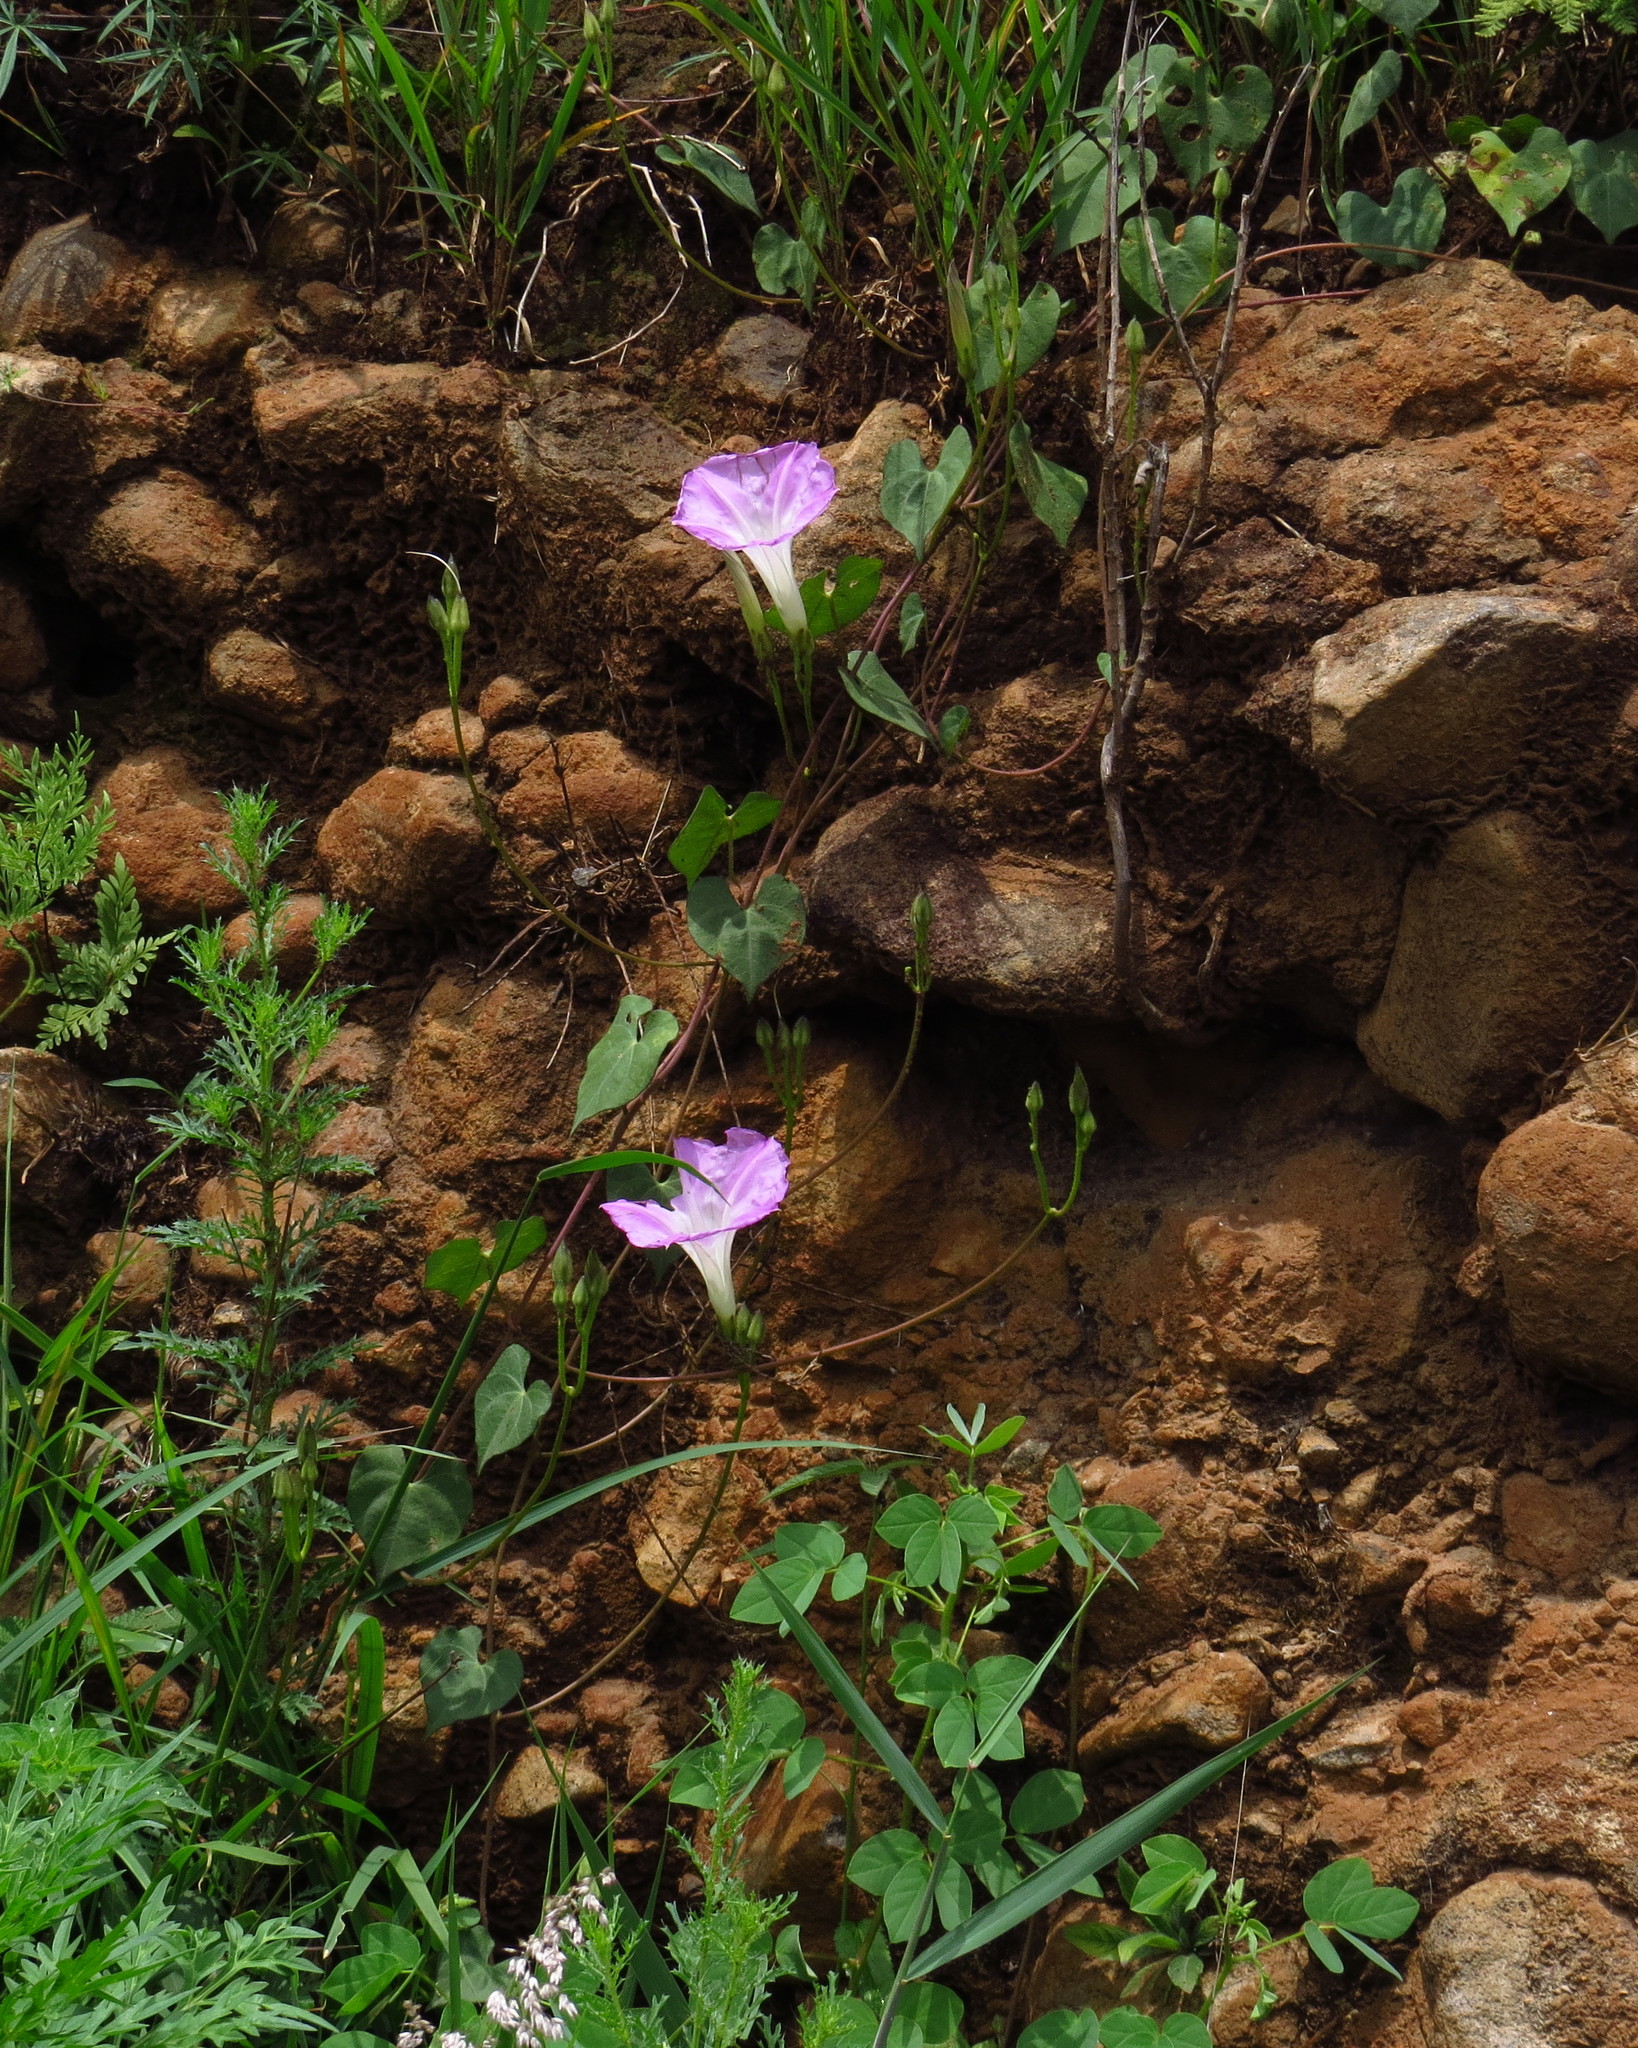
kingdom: Plantae
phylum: Tracheophyta
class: Magnoliopsida
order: Solanales
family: Convolvulaceae
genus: Ipomoea
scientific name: Ipomoea orizabensis
